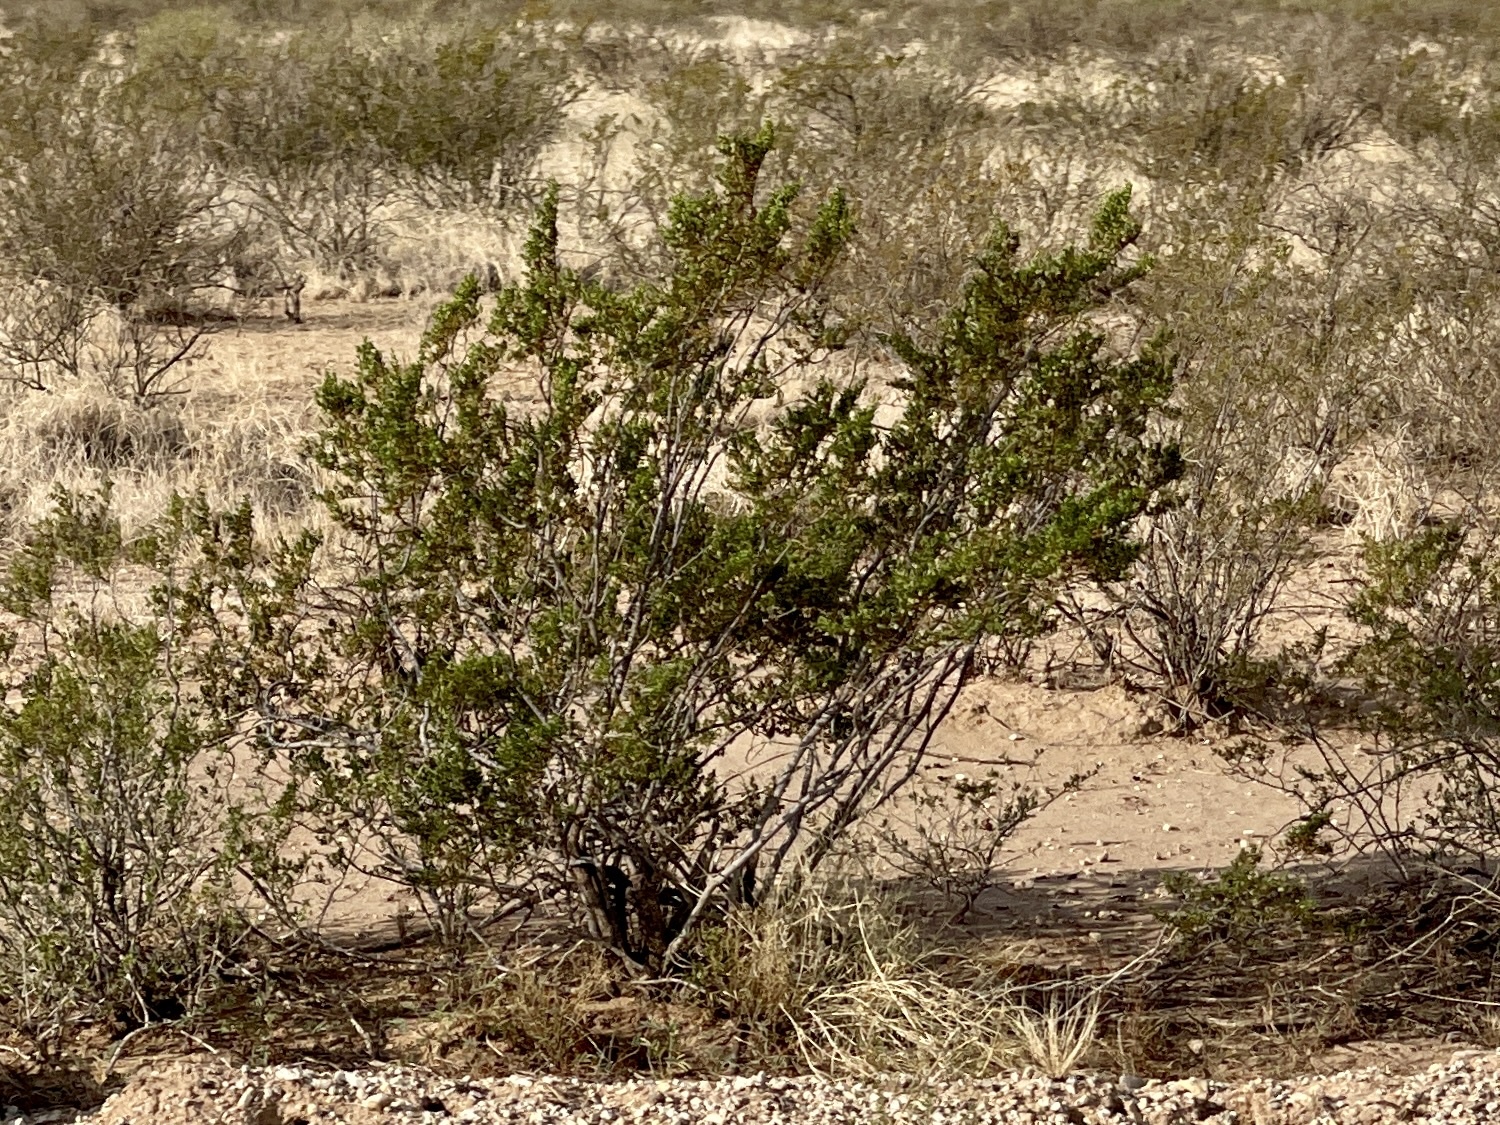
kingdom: Plantae
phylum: Tracheophyta
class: Magnoliopsida
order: Zygophyllales
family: Zygophyllaceae
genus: Larrea
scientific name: Larrea tridentata
